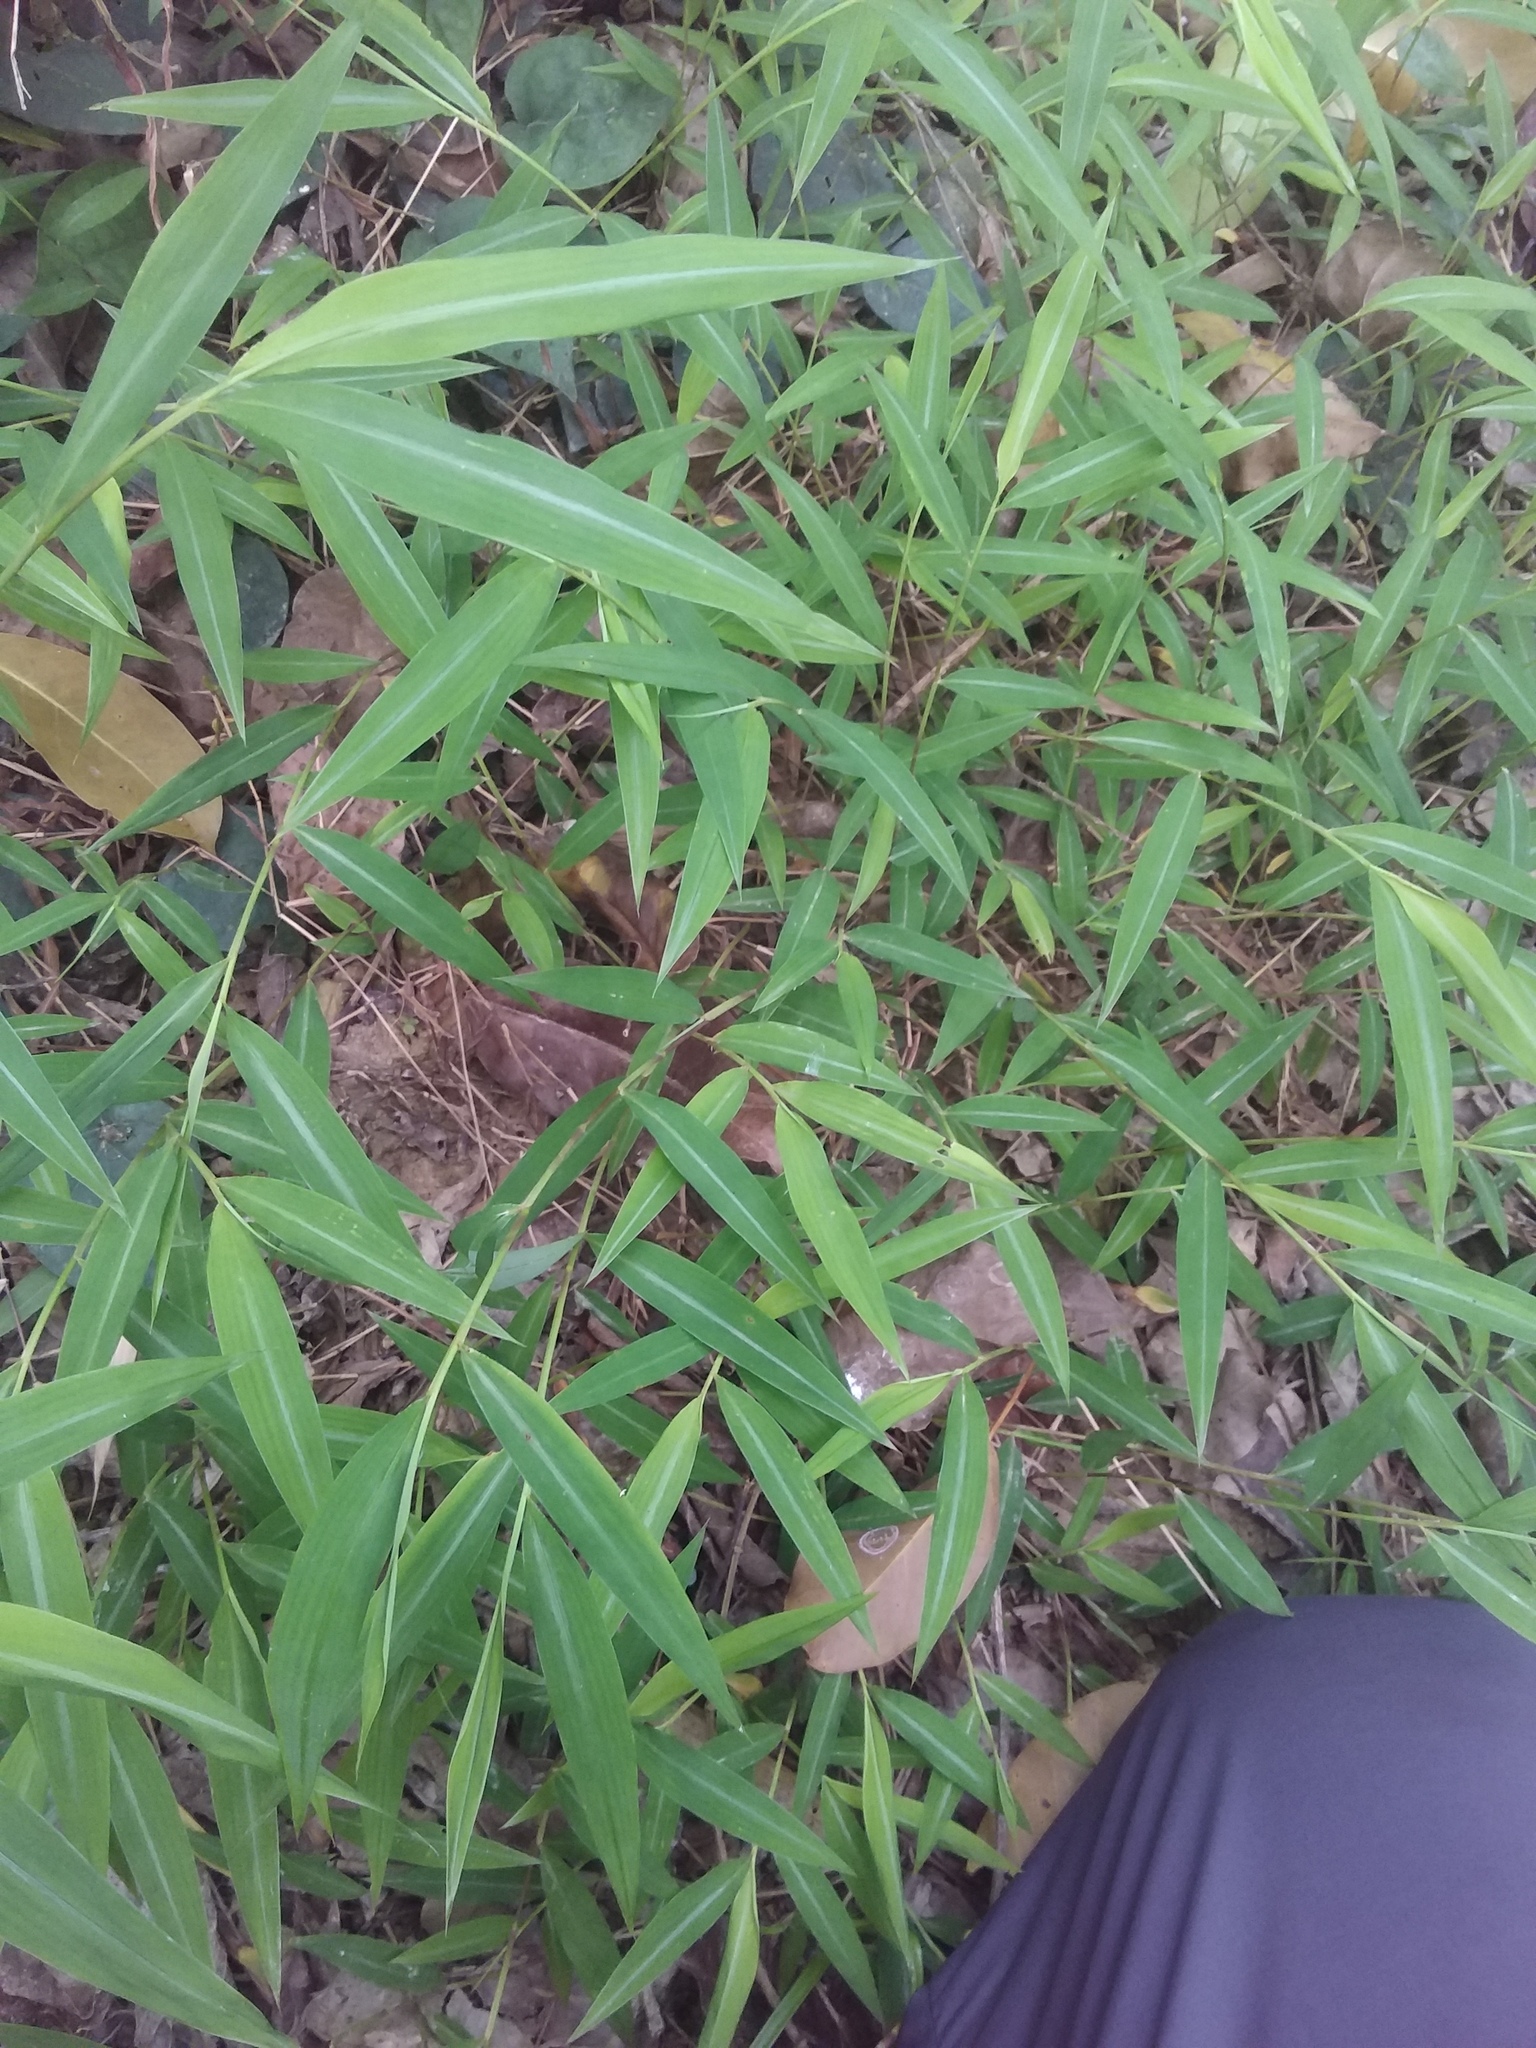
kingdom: Plantae
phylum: Tracheophyta
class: Liliopsida
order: Poales
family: Poaceae
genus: Oplismenus
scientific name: Oplismenus compositus
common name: Running mountain grass
